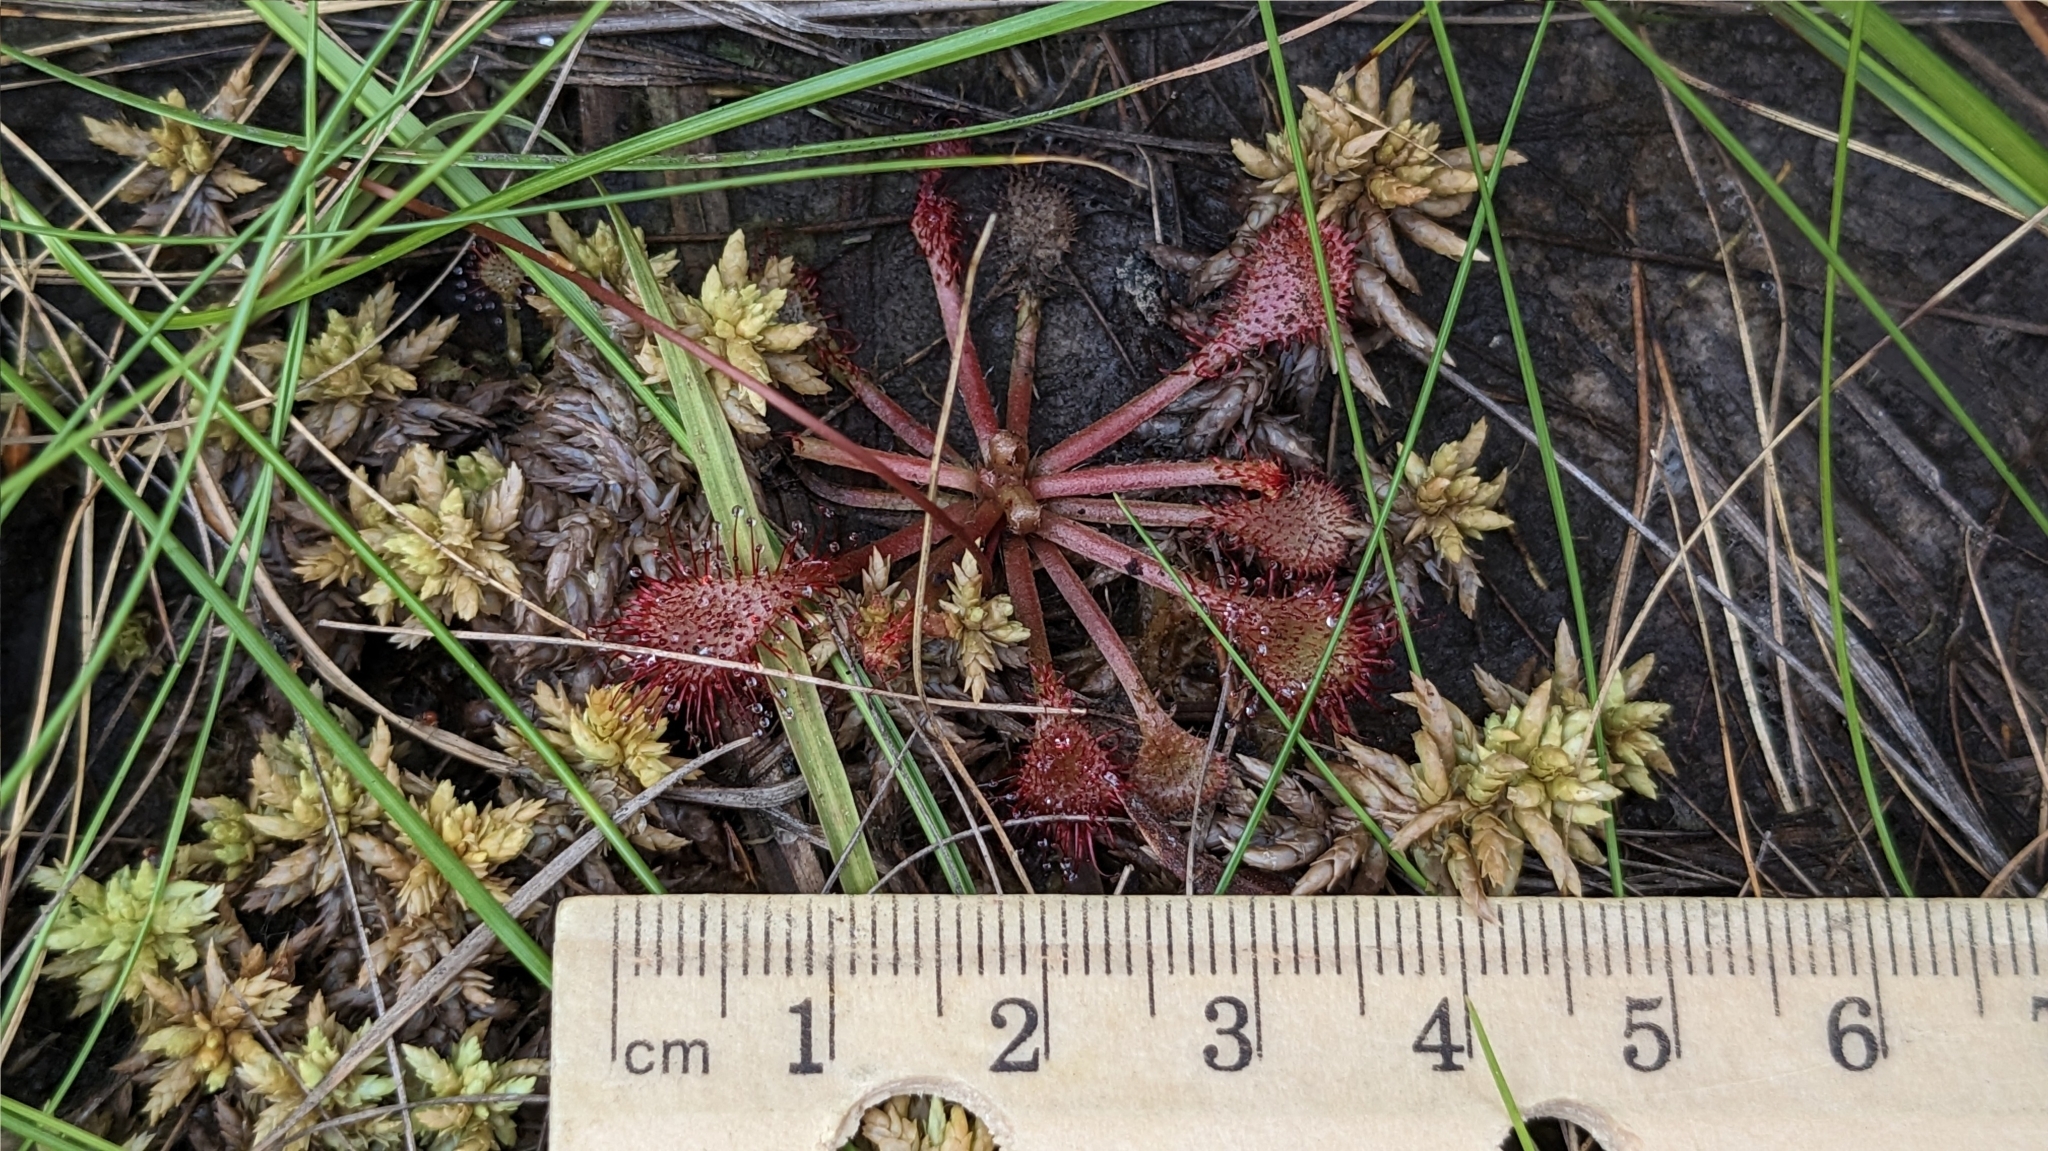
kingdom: Plantae
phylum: Tracheophyta
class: Magnoliopsida
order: Caryophyllales
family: Droseraceae
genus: Drosera
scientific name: Drosera capillaris
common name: Pink sundew
